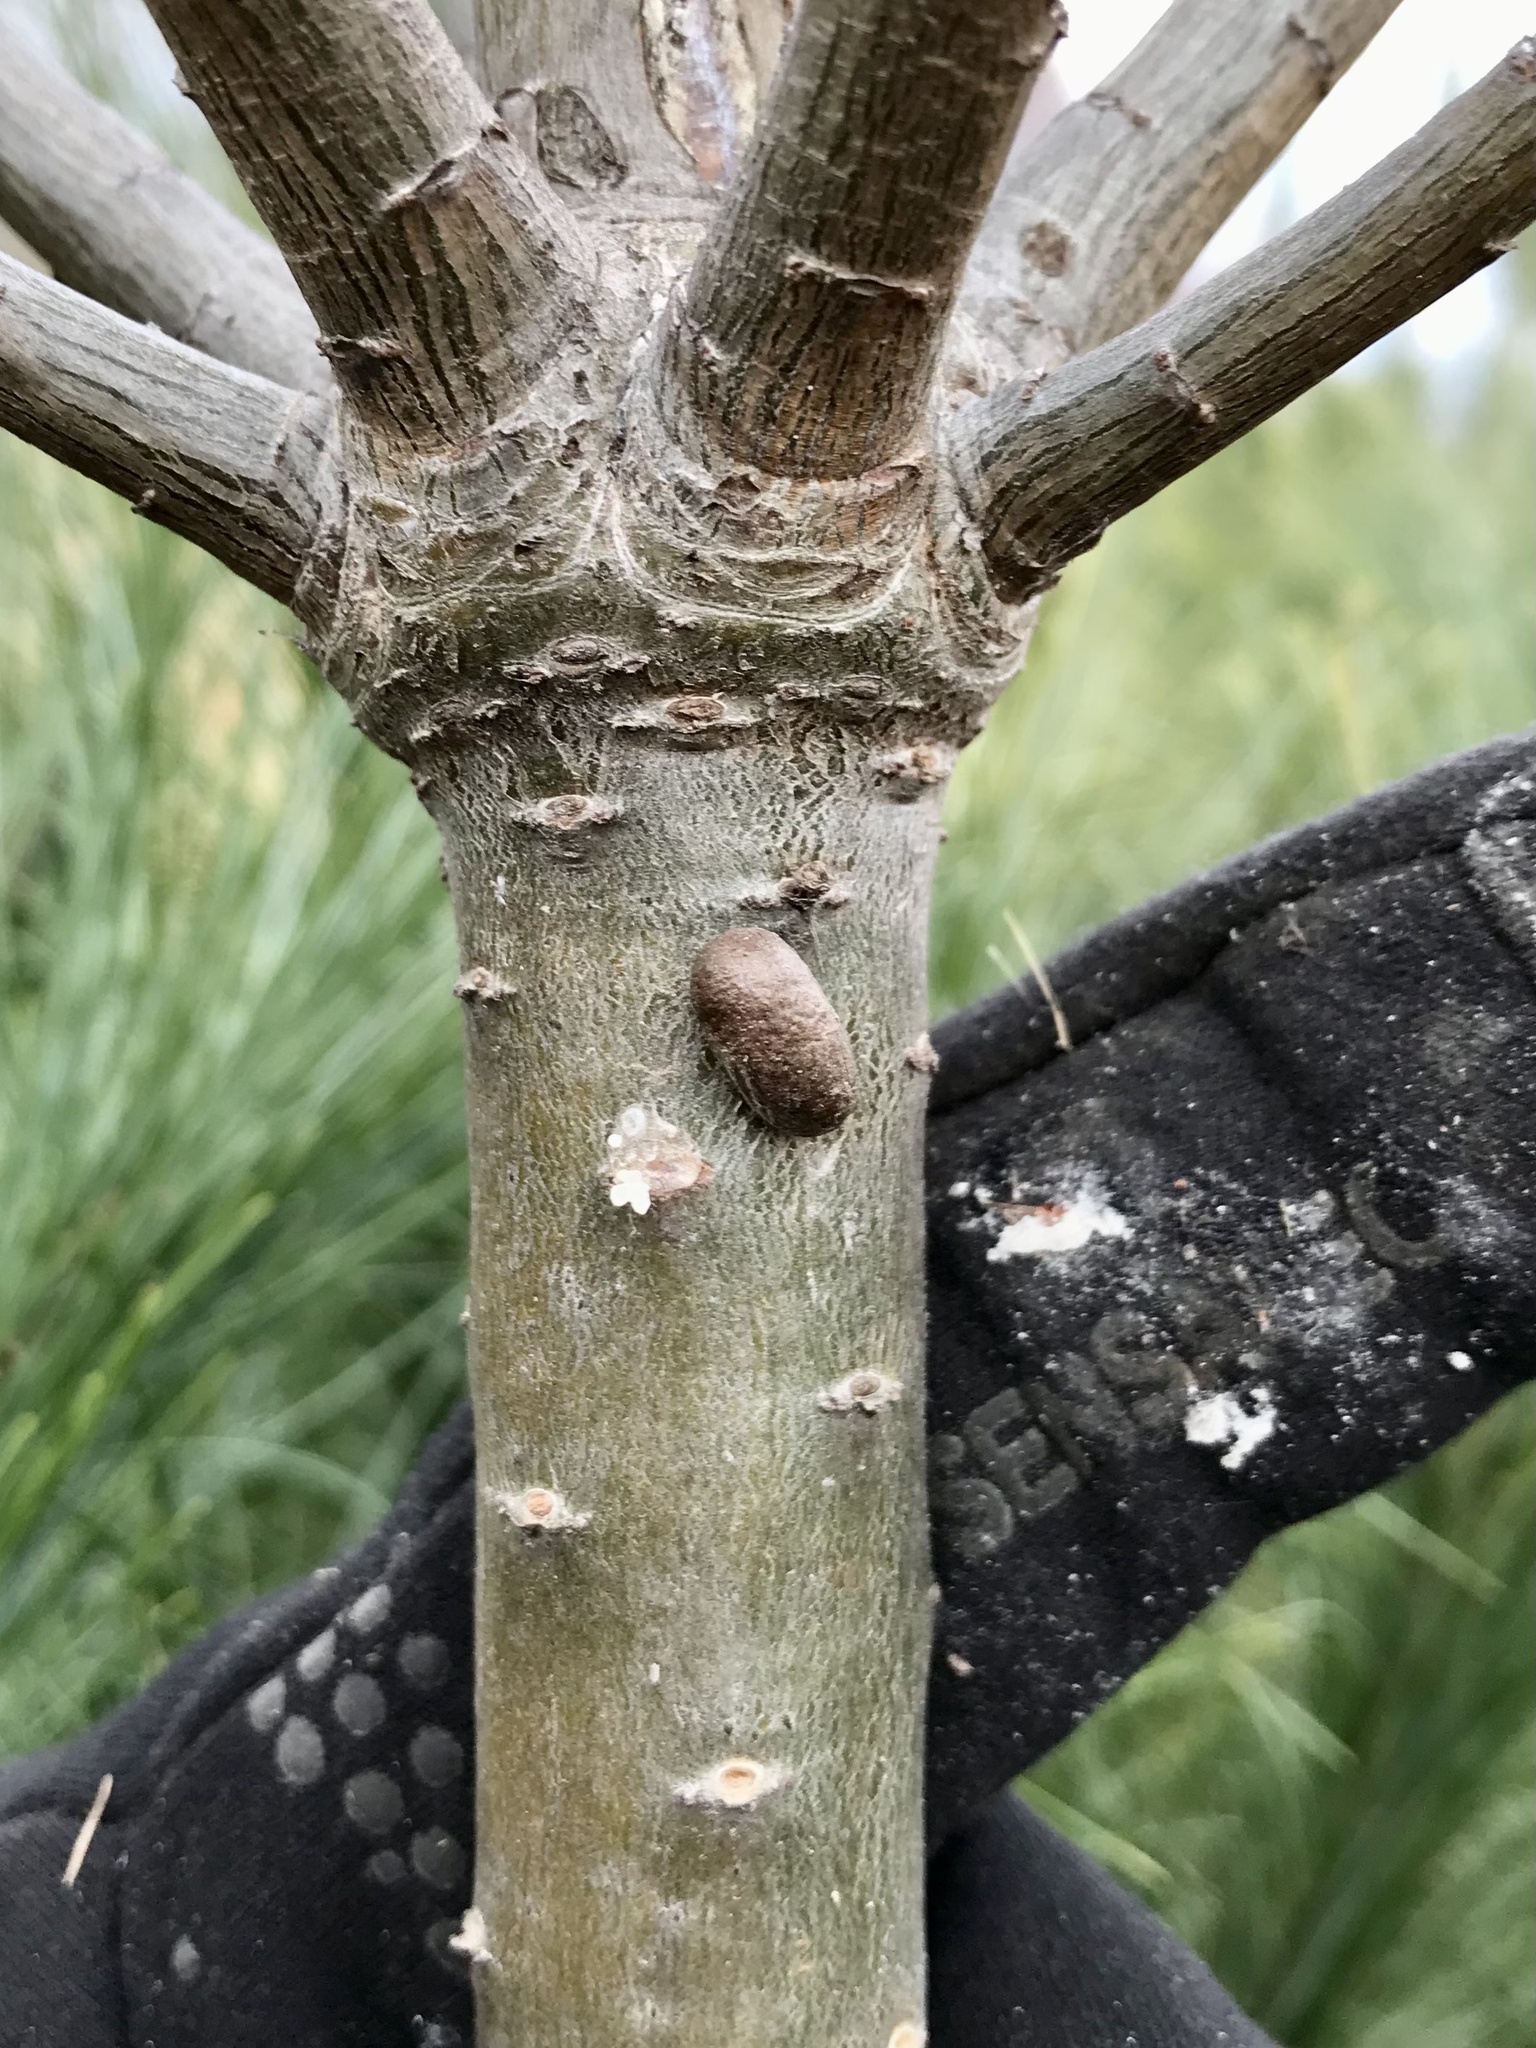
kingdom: Animalia
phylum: Arthropoda
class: Insecta
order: Hymenoptera
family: Diprionidae
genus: Diprion
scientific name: Diprion similis
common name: Pine sawfly
